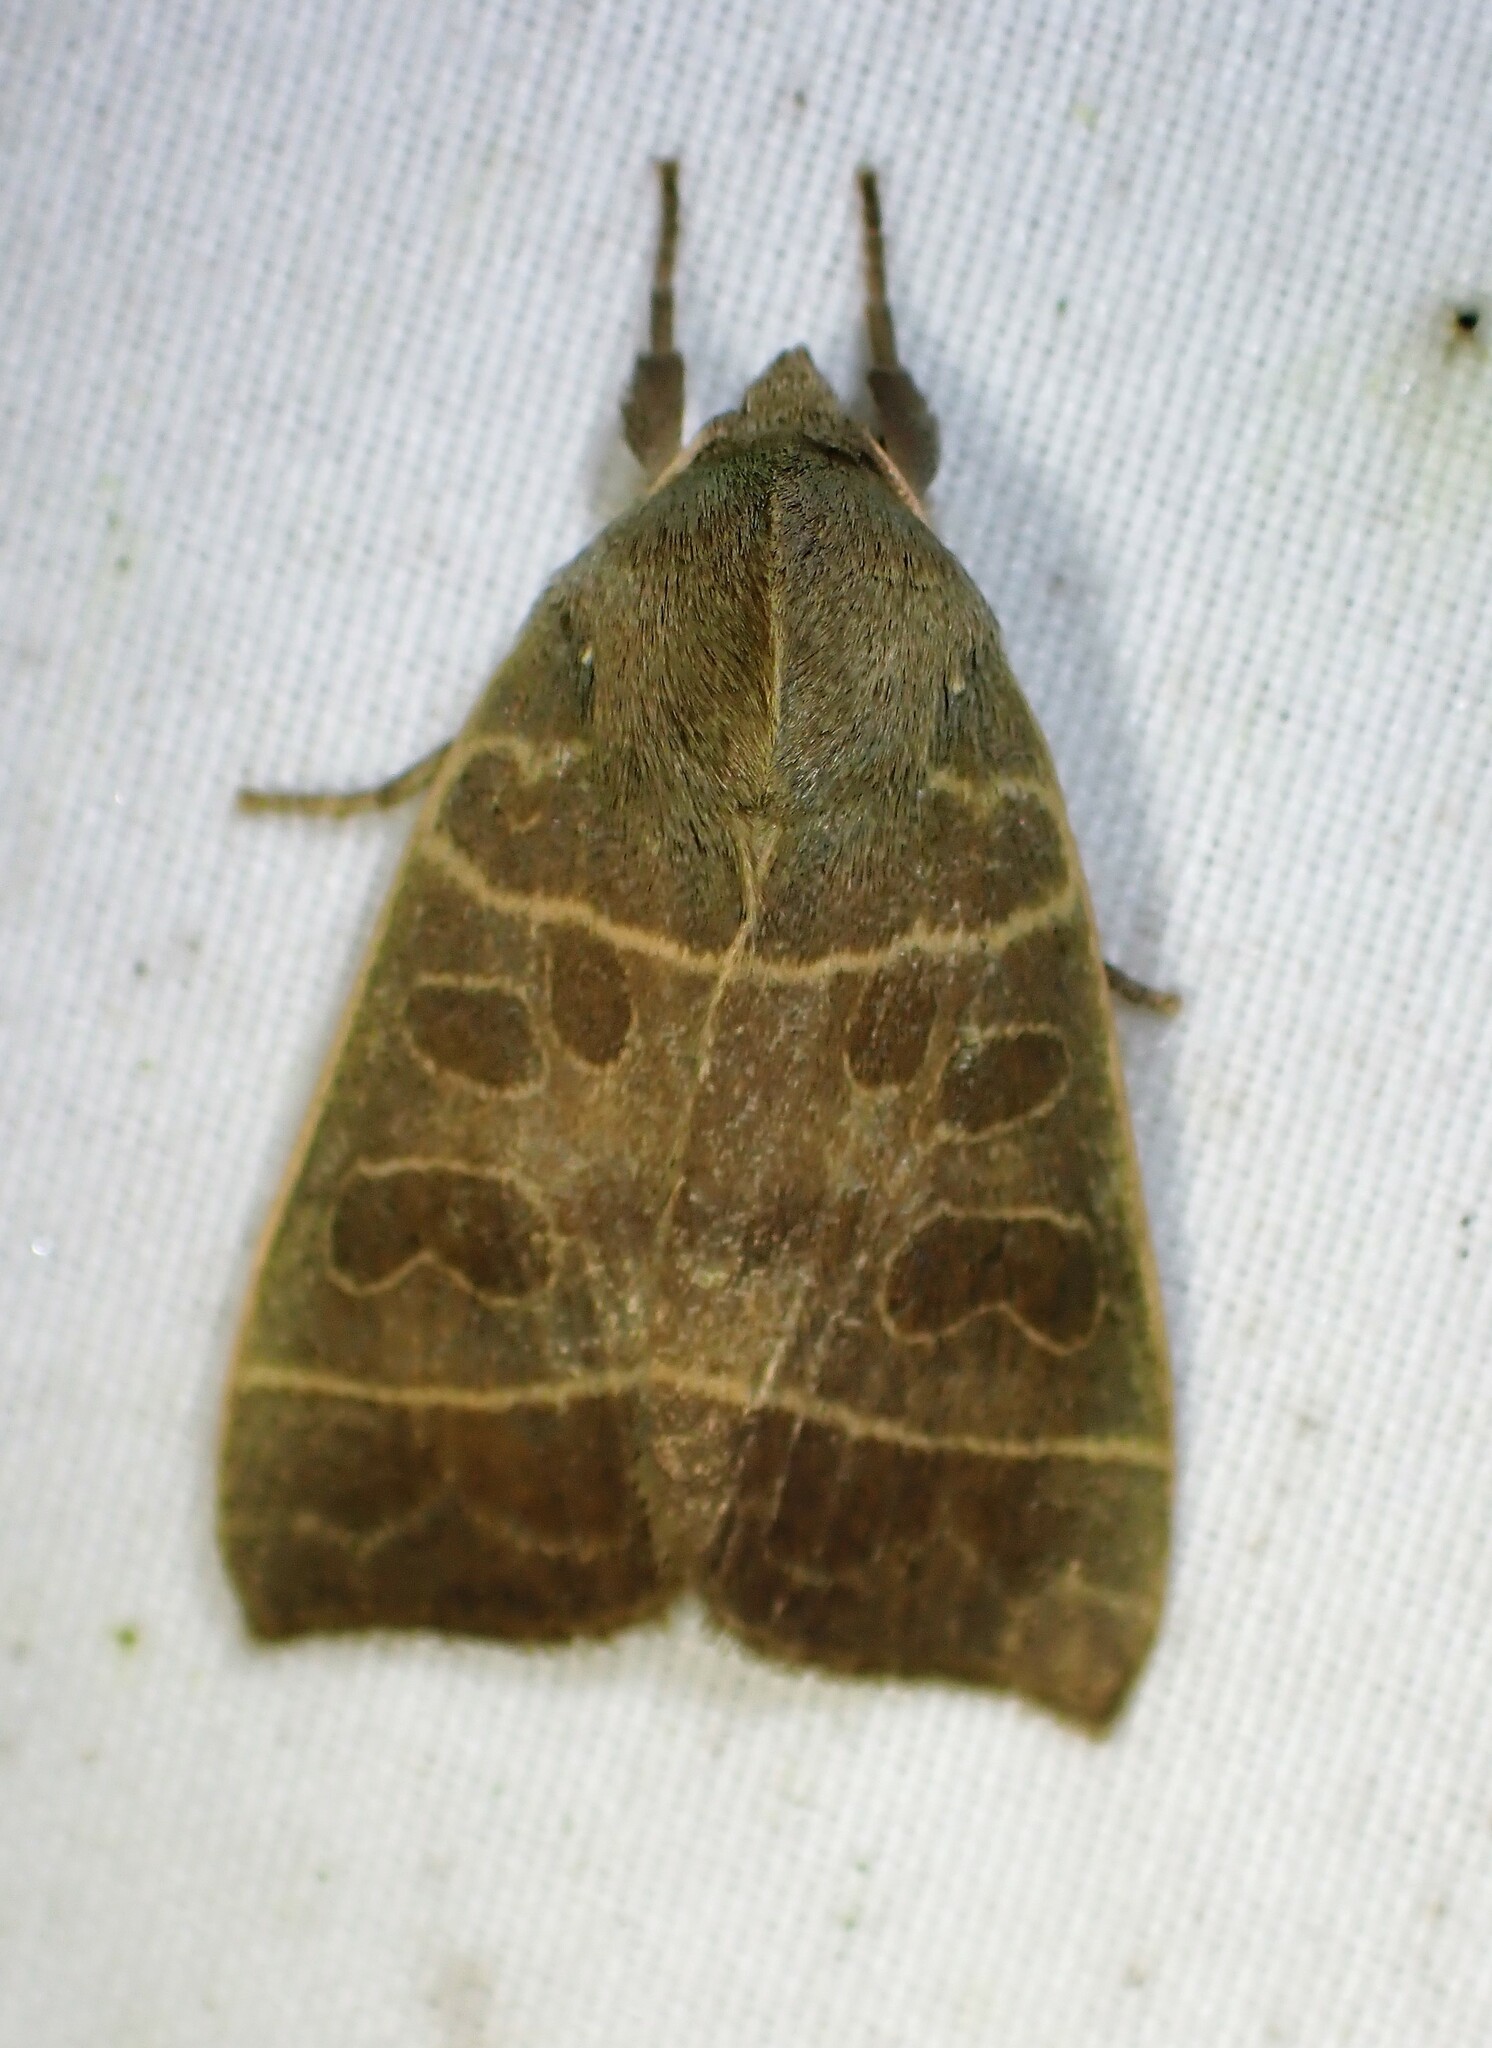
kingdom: Animalia
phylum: Arthropoda
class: Insecta
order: Lepidoptera
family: Noctuidae
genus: Ipimorpha
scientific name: Ipimorpha pleonectusa
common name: Even-lined sallow
